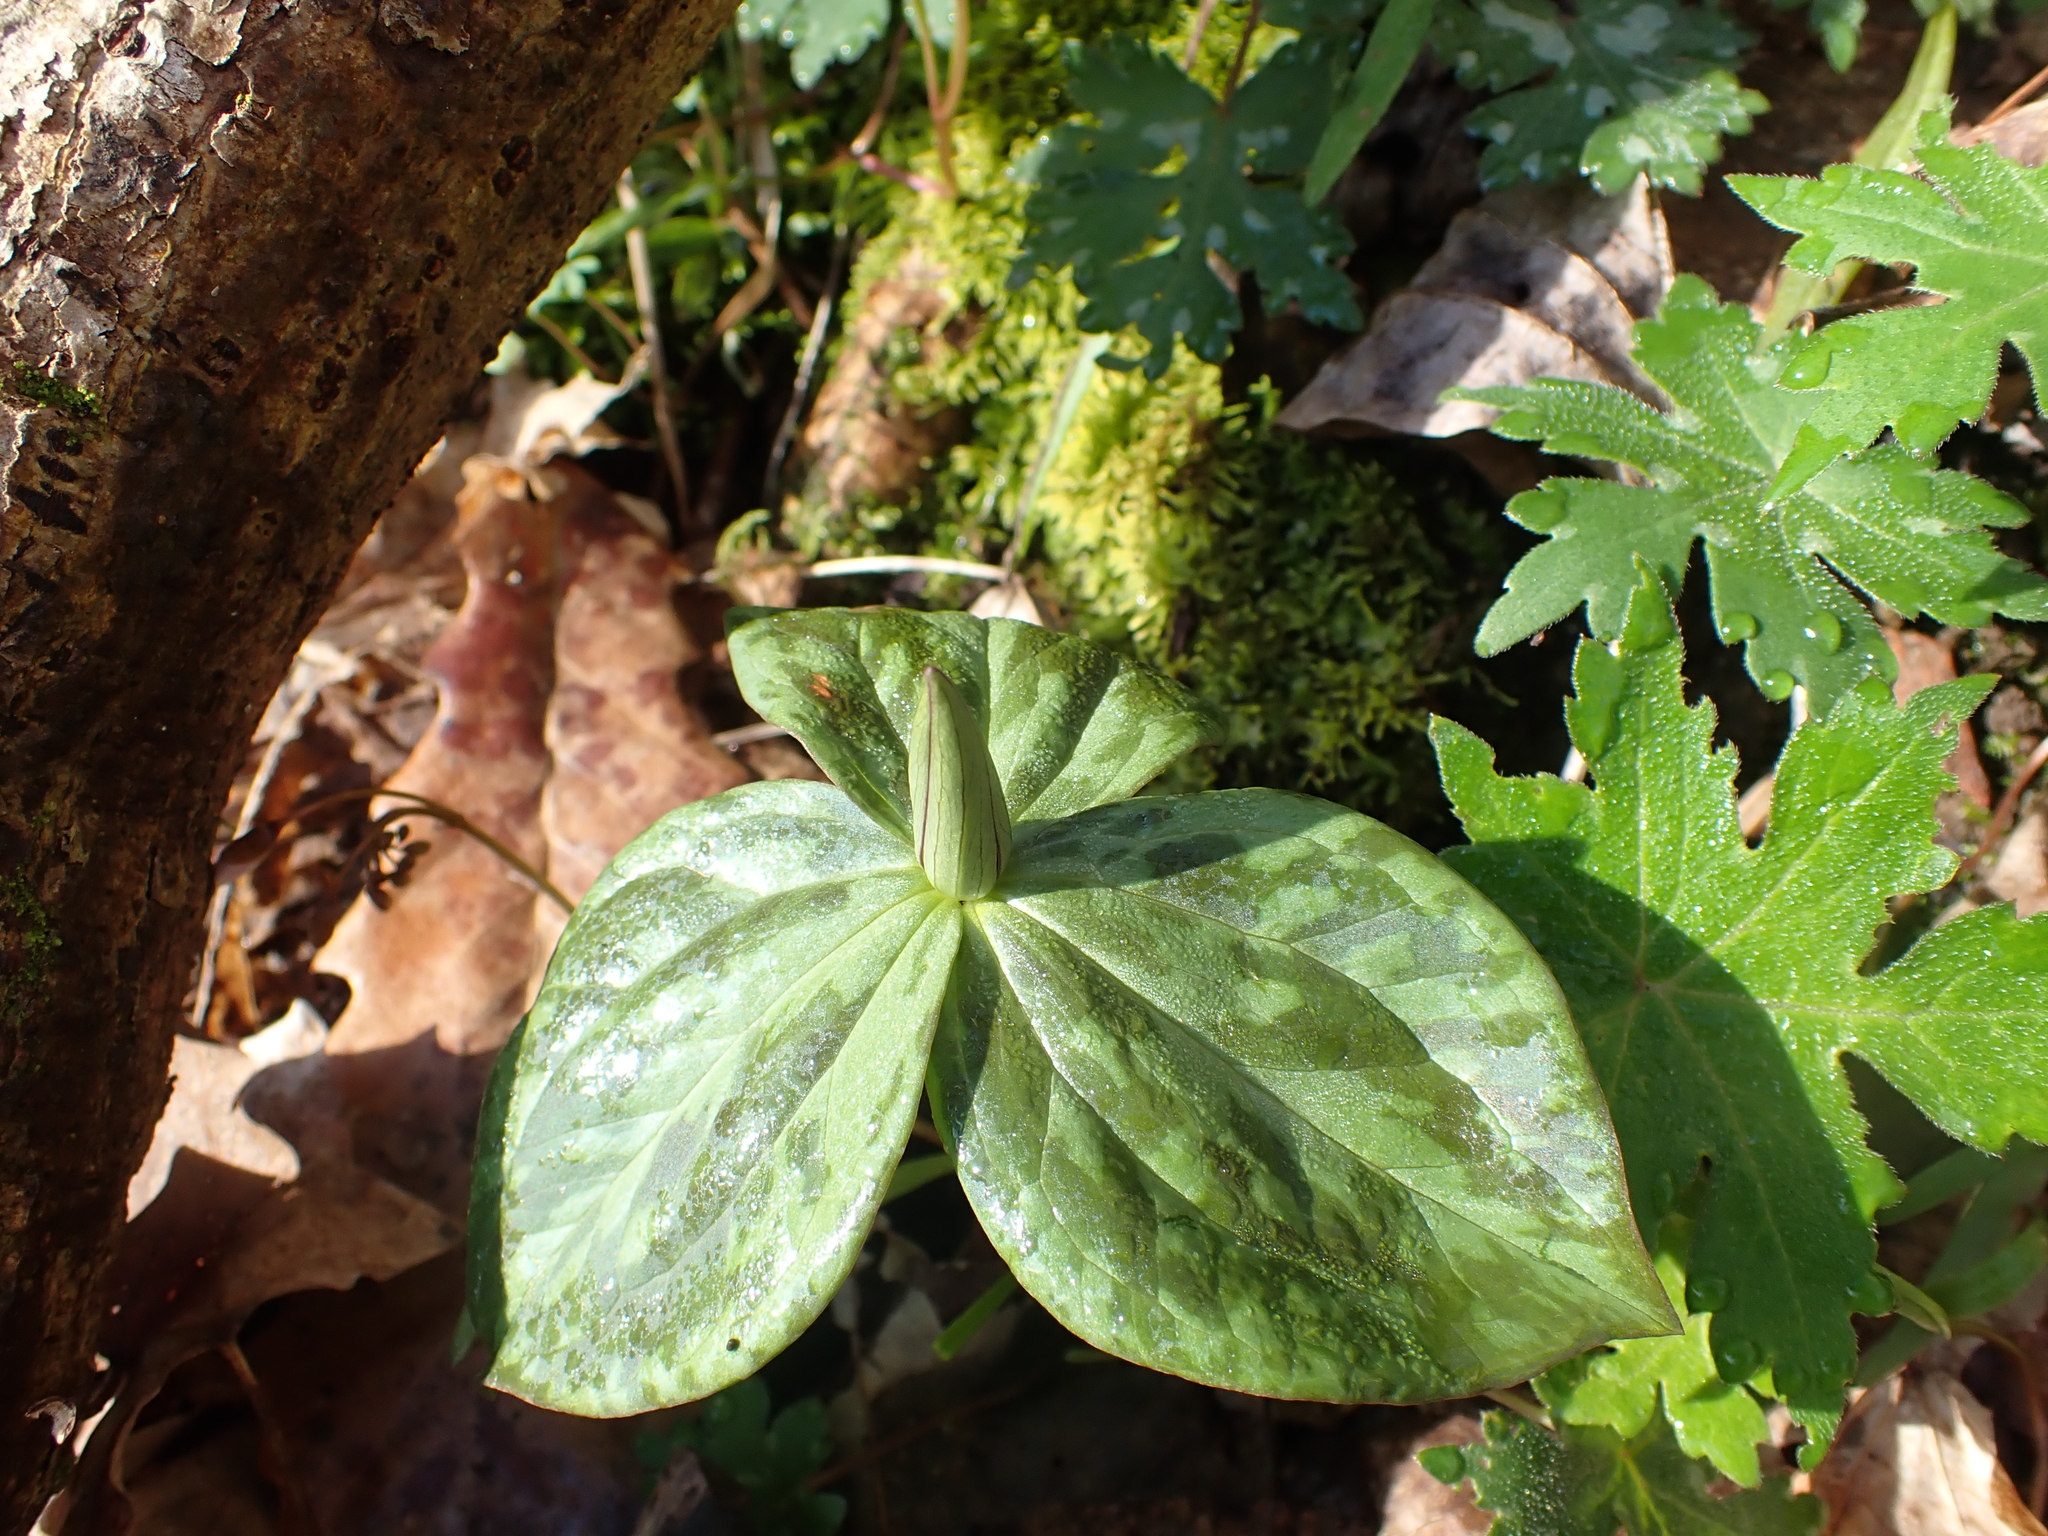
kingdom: Plantae
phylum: Tracheophyta
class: Liliopsida
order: Liliales
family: Melanthiaceae
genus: Trillium
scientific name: Trillium sessile
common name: Sessile trillium
